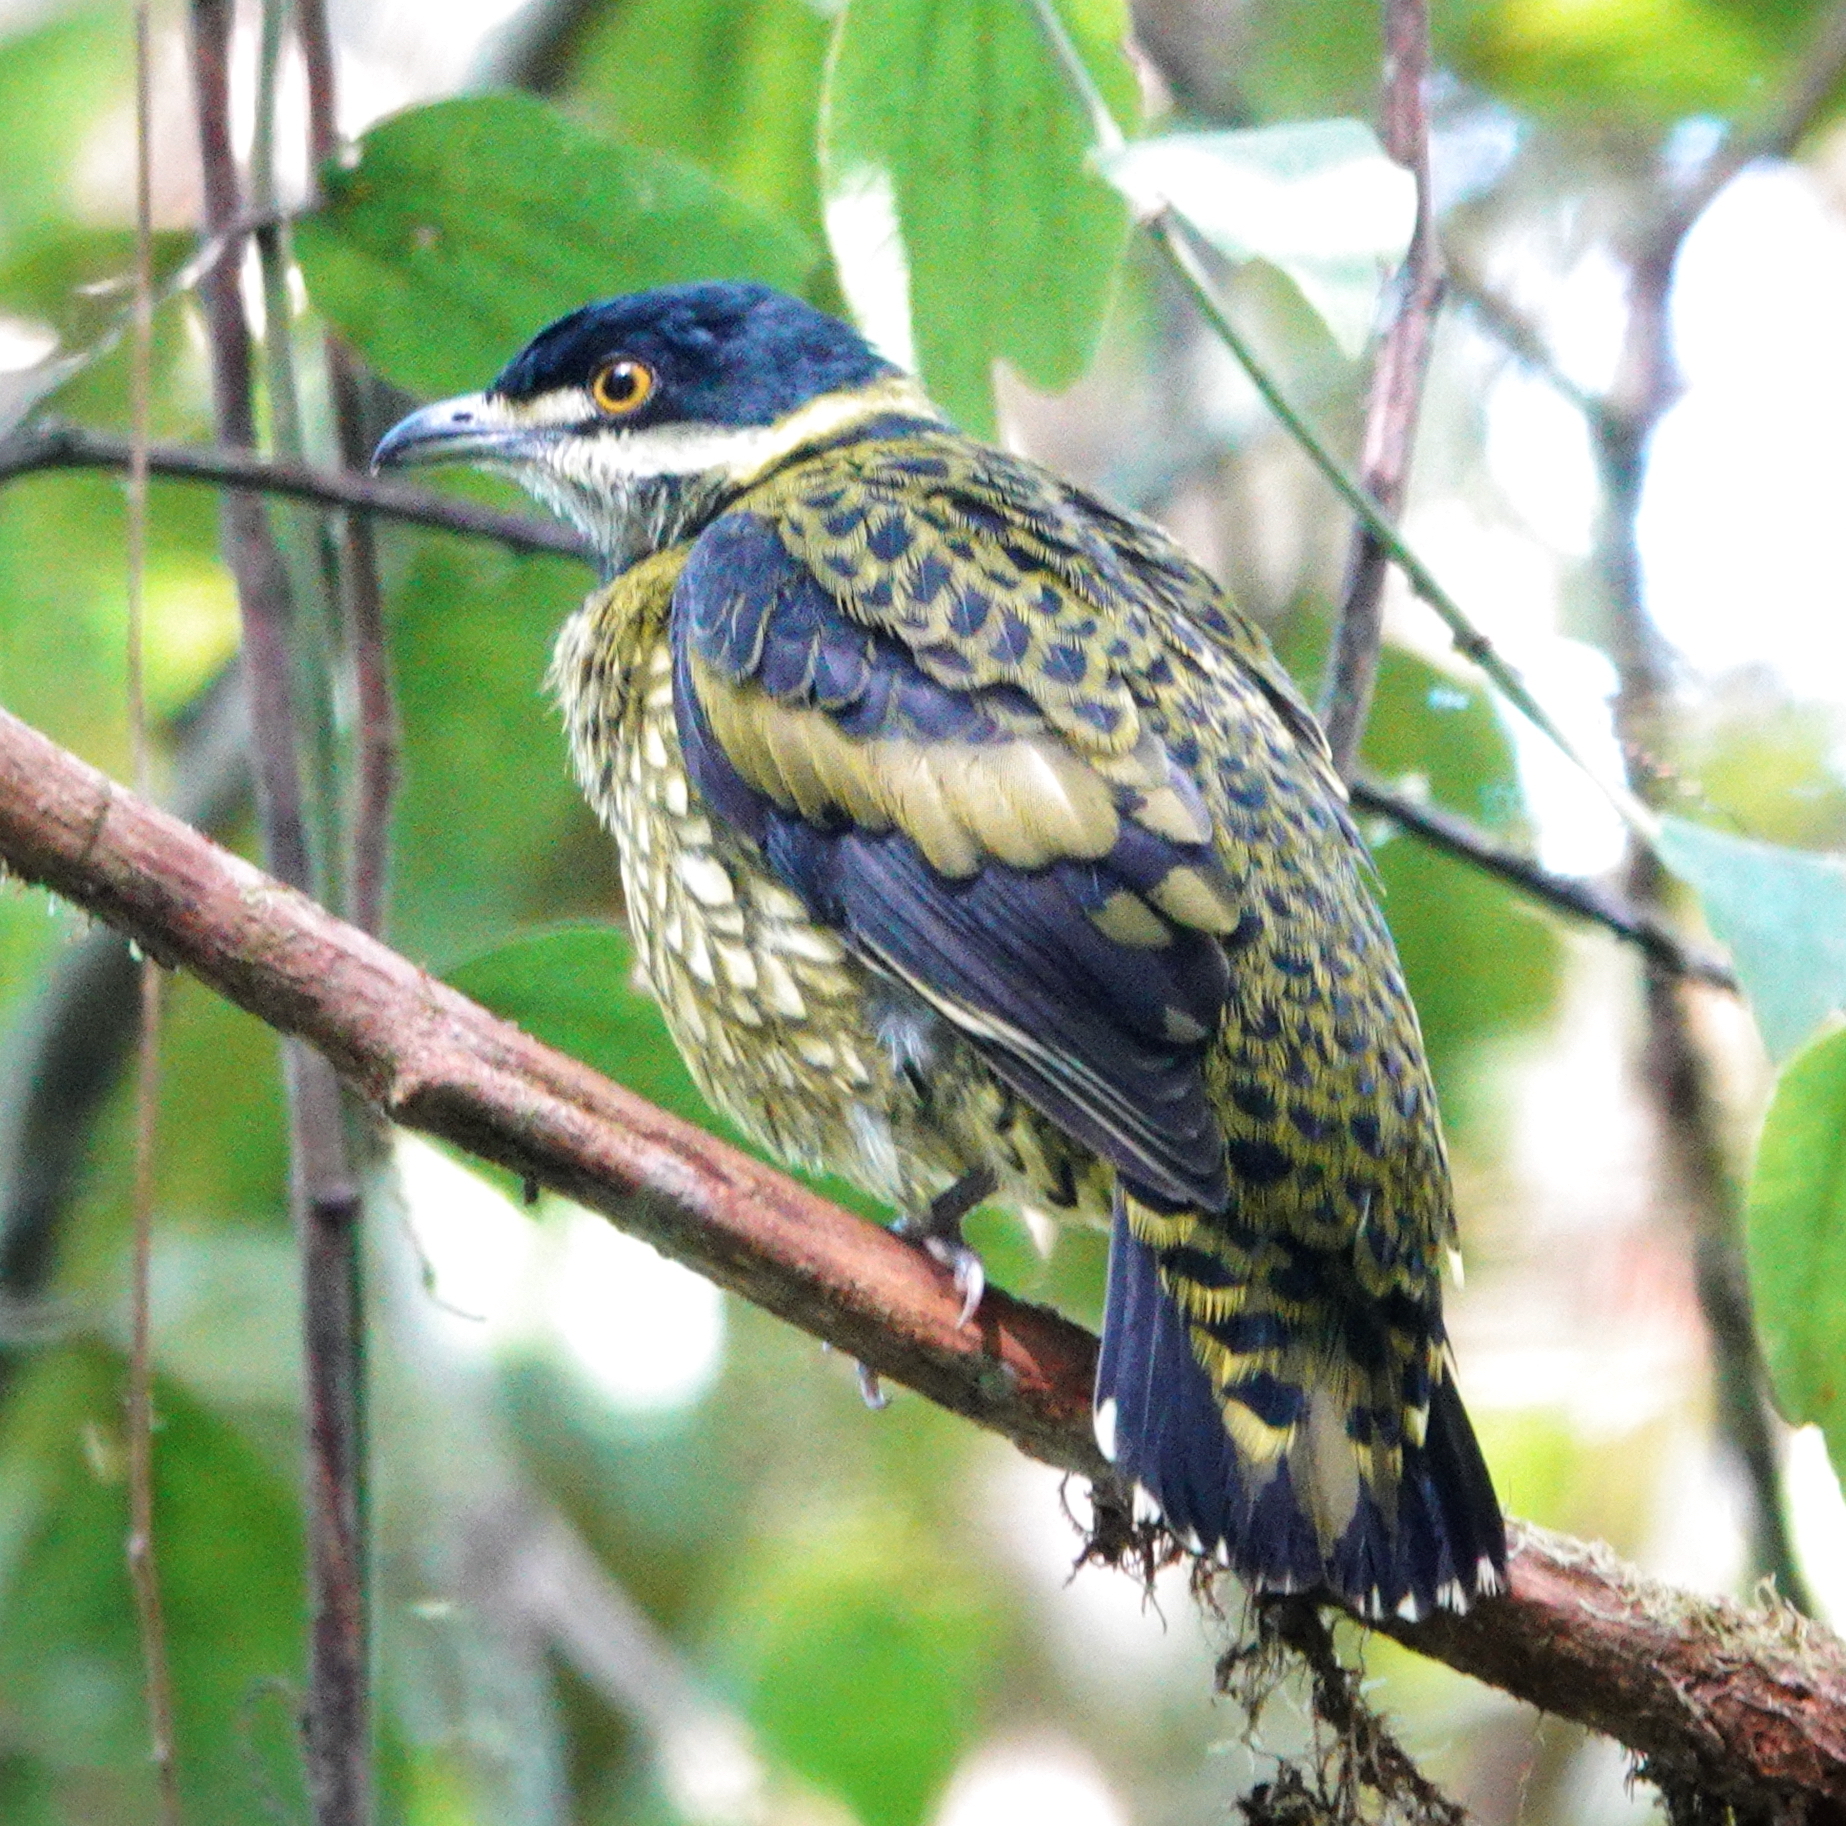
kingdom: Animalia
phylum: Chordata
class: Aves
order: Passeriformes
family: Cotingidae
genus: Ampelioides
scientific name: Ampelioides tschudii
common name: Scaled fruiteater
